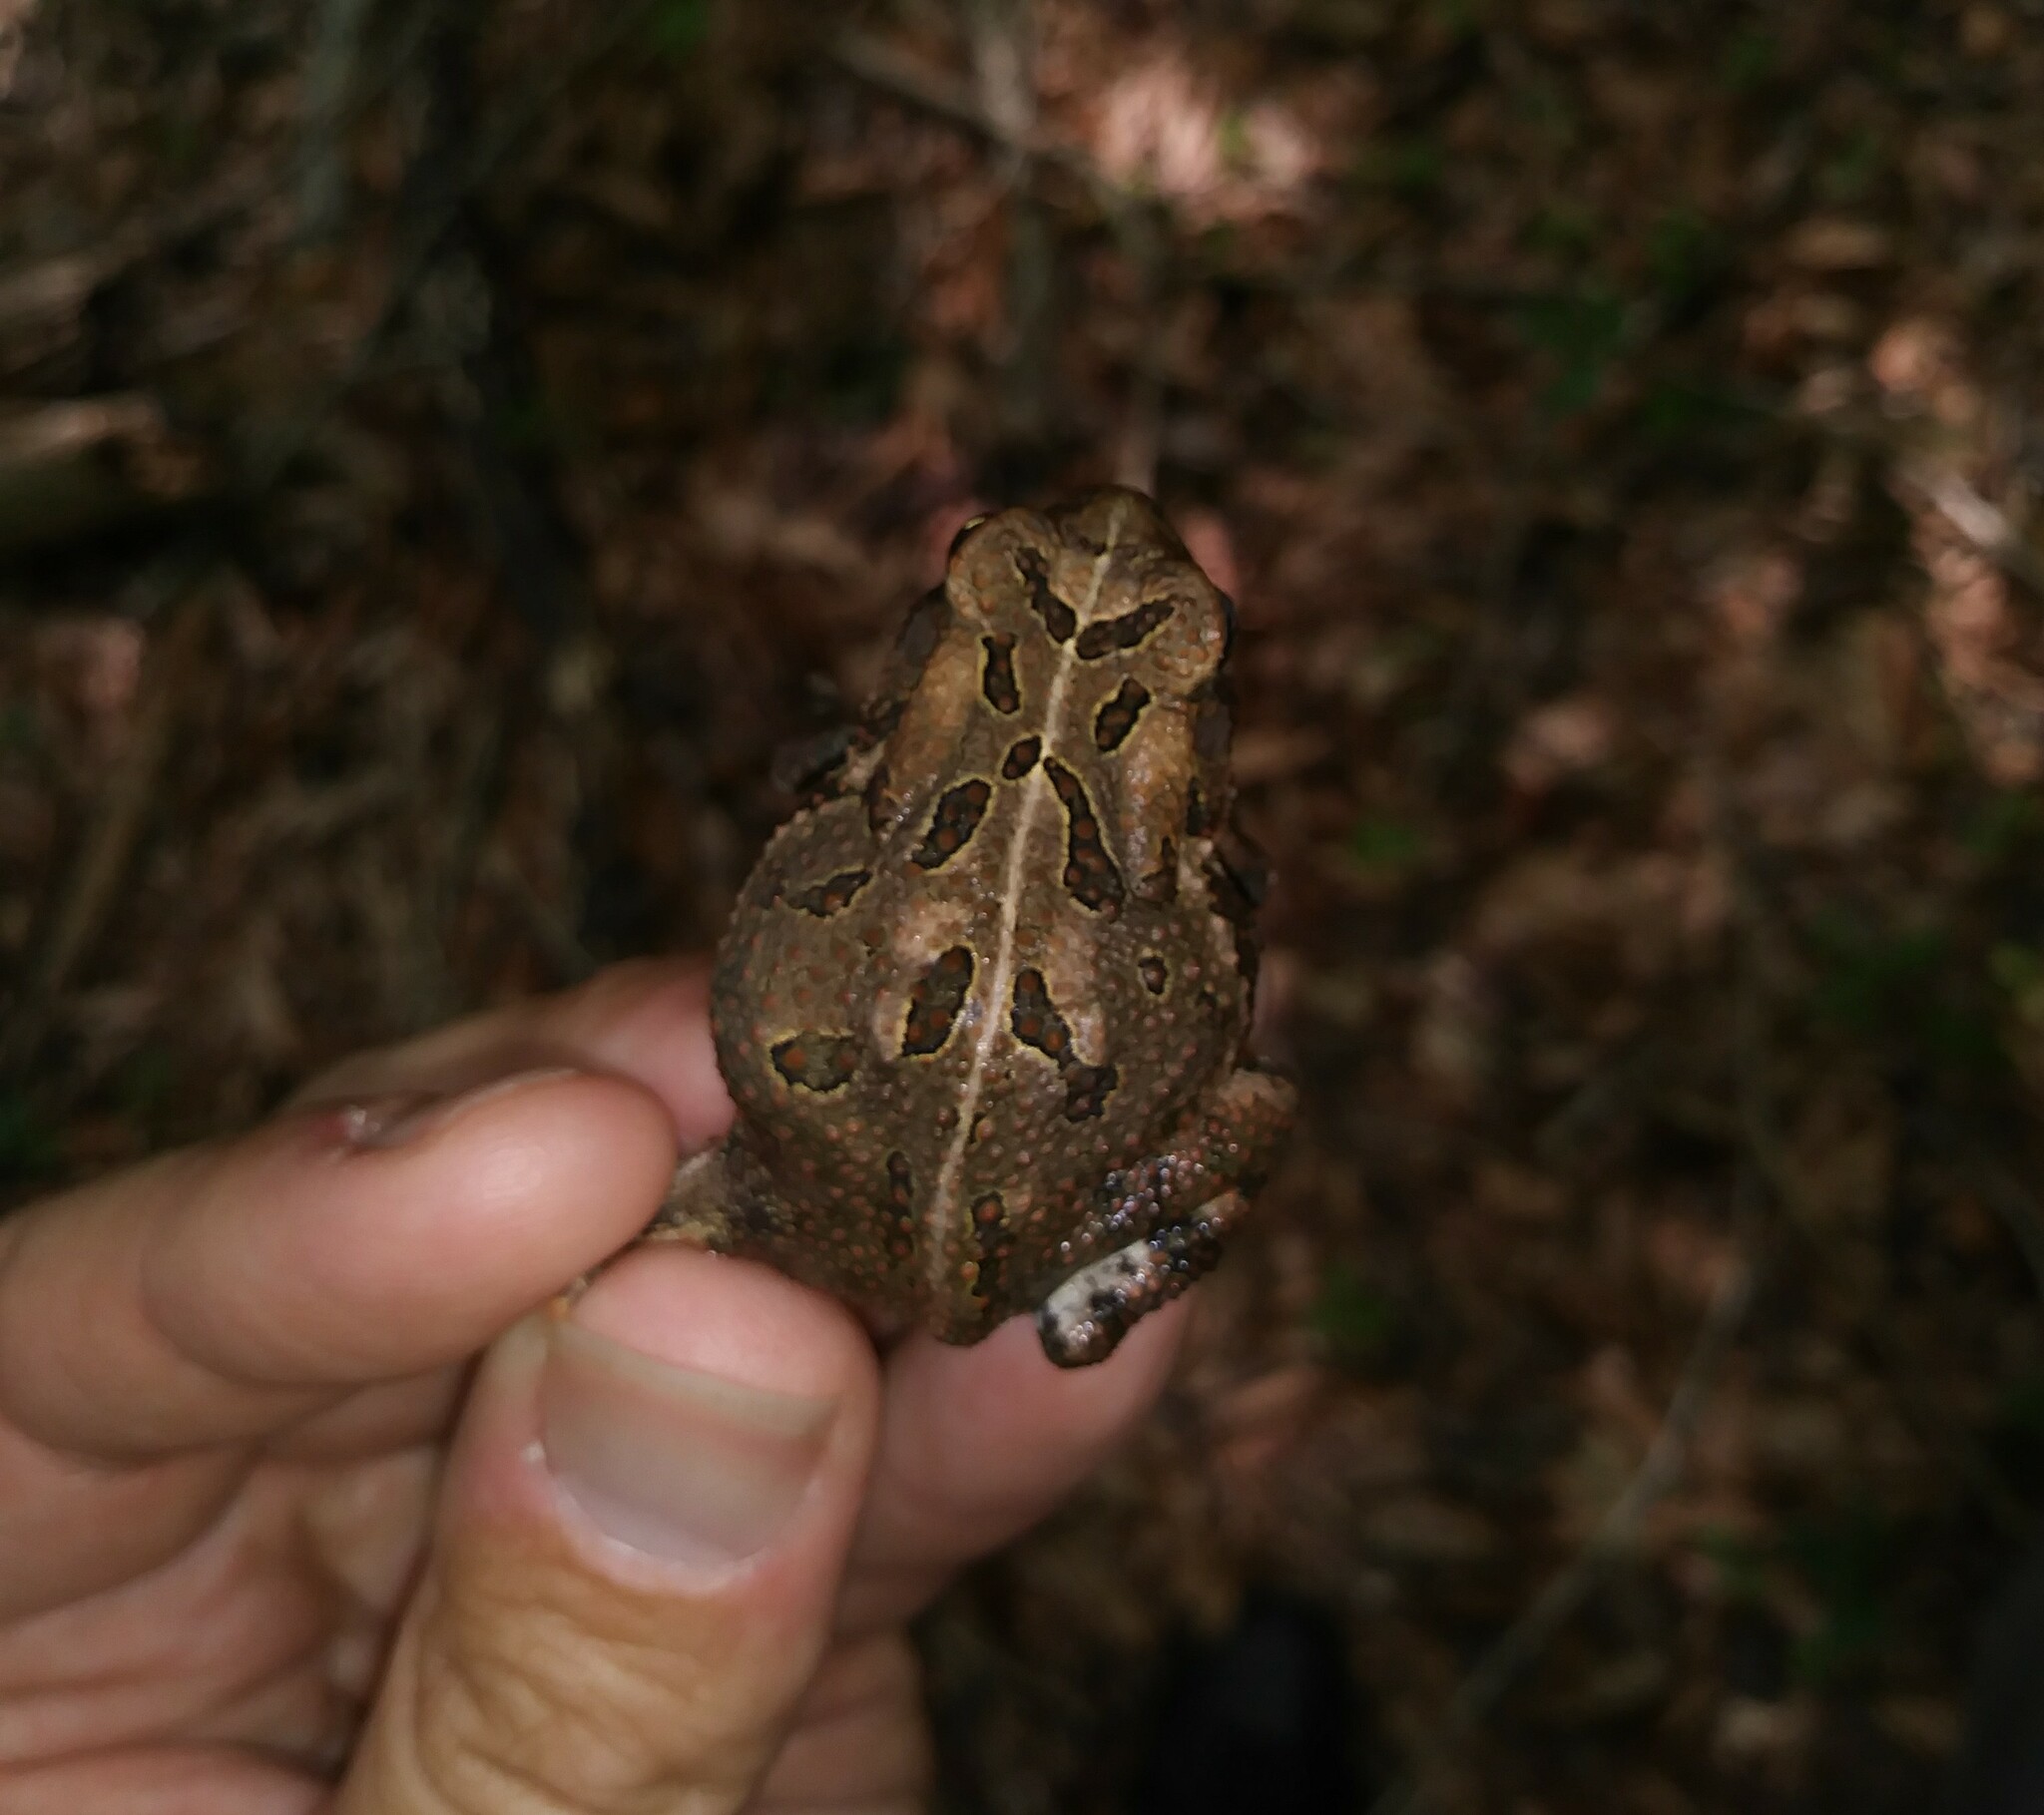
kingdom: Animalia
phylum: Chordata
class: Amphibia
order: Anura
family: Bufonidae
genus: Anaxyrus
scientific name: Anaxyrus fowleri
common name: Fowler's toad
